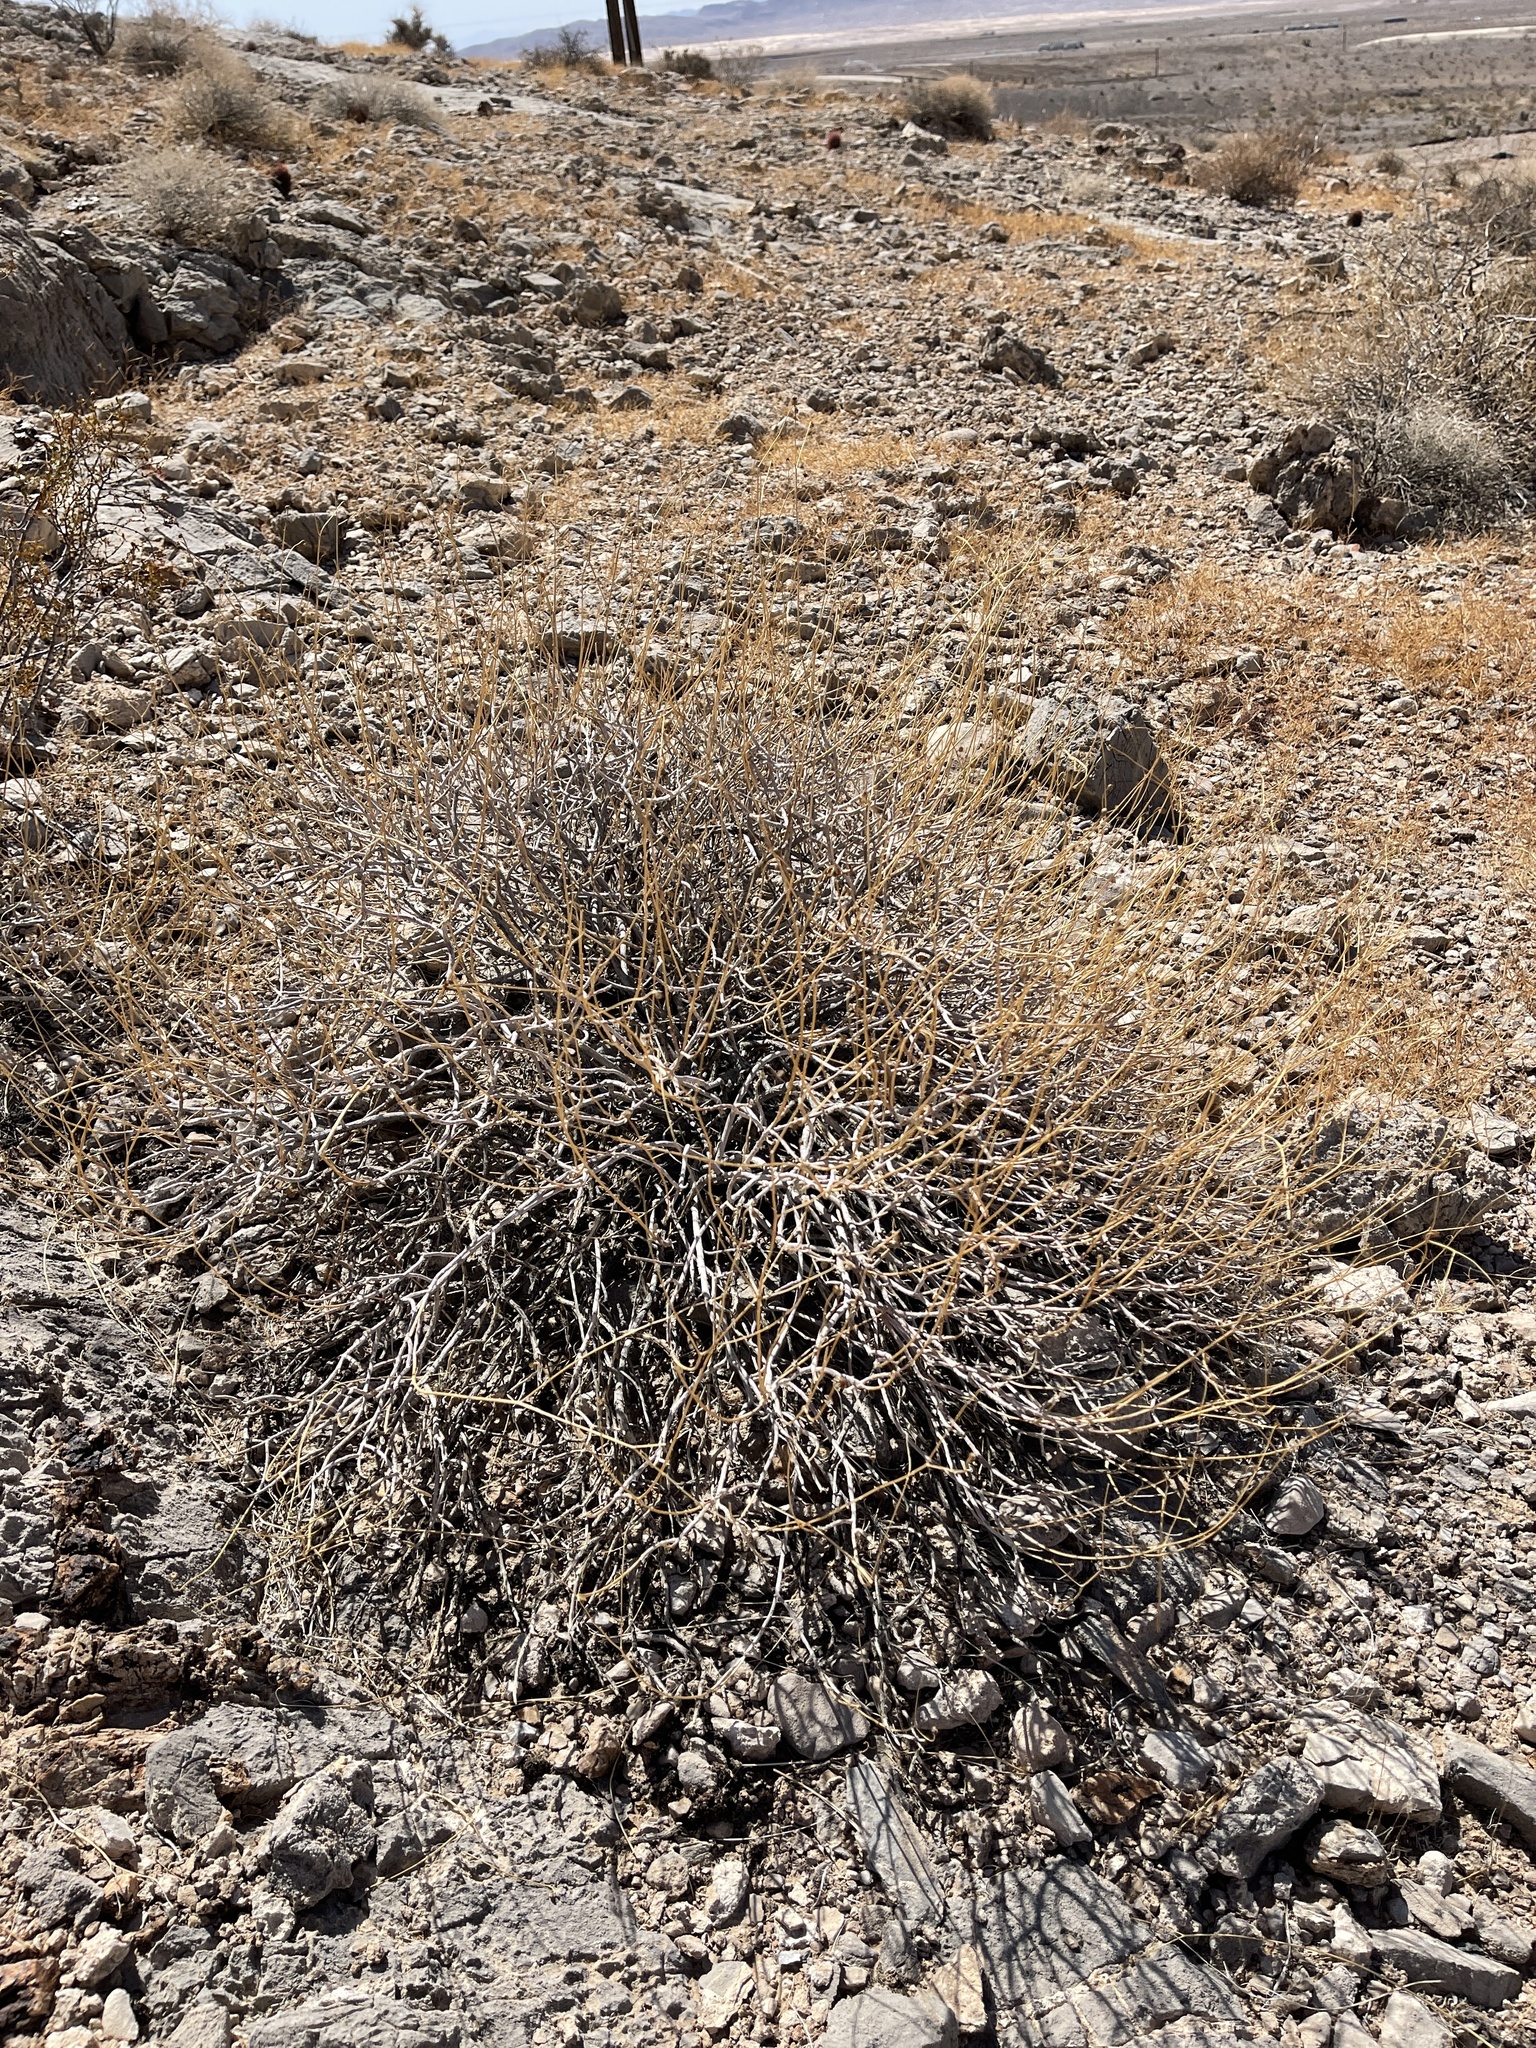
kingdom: Plantae
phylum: Tracheophyta
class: Magnoliopsida
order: Asterales
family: Asteraceae
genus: Encelia
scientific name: Encelia farinosa
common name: Brittlebush
